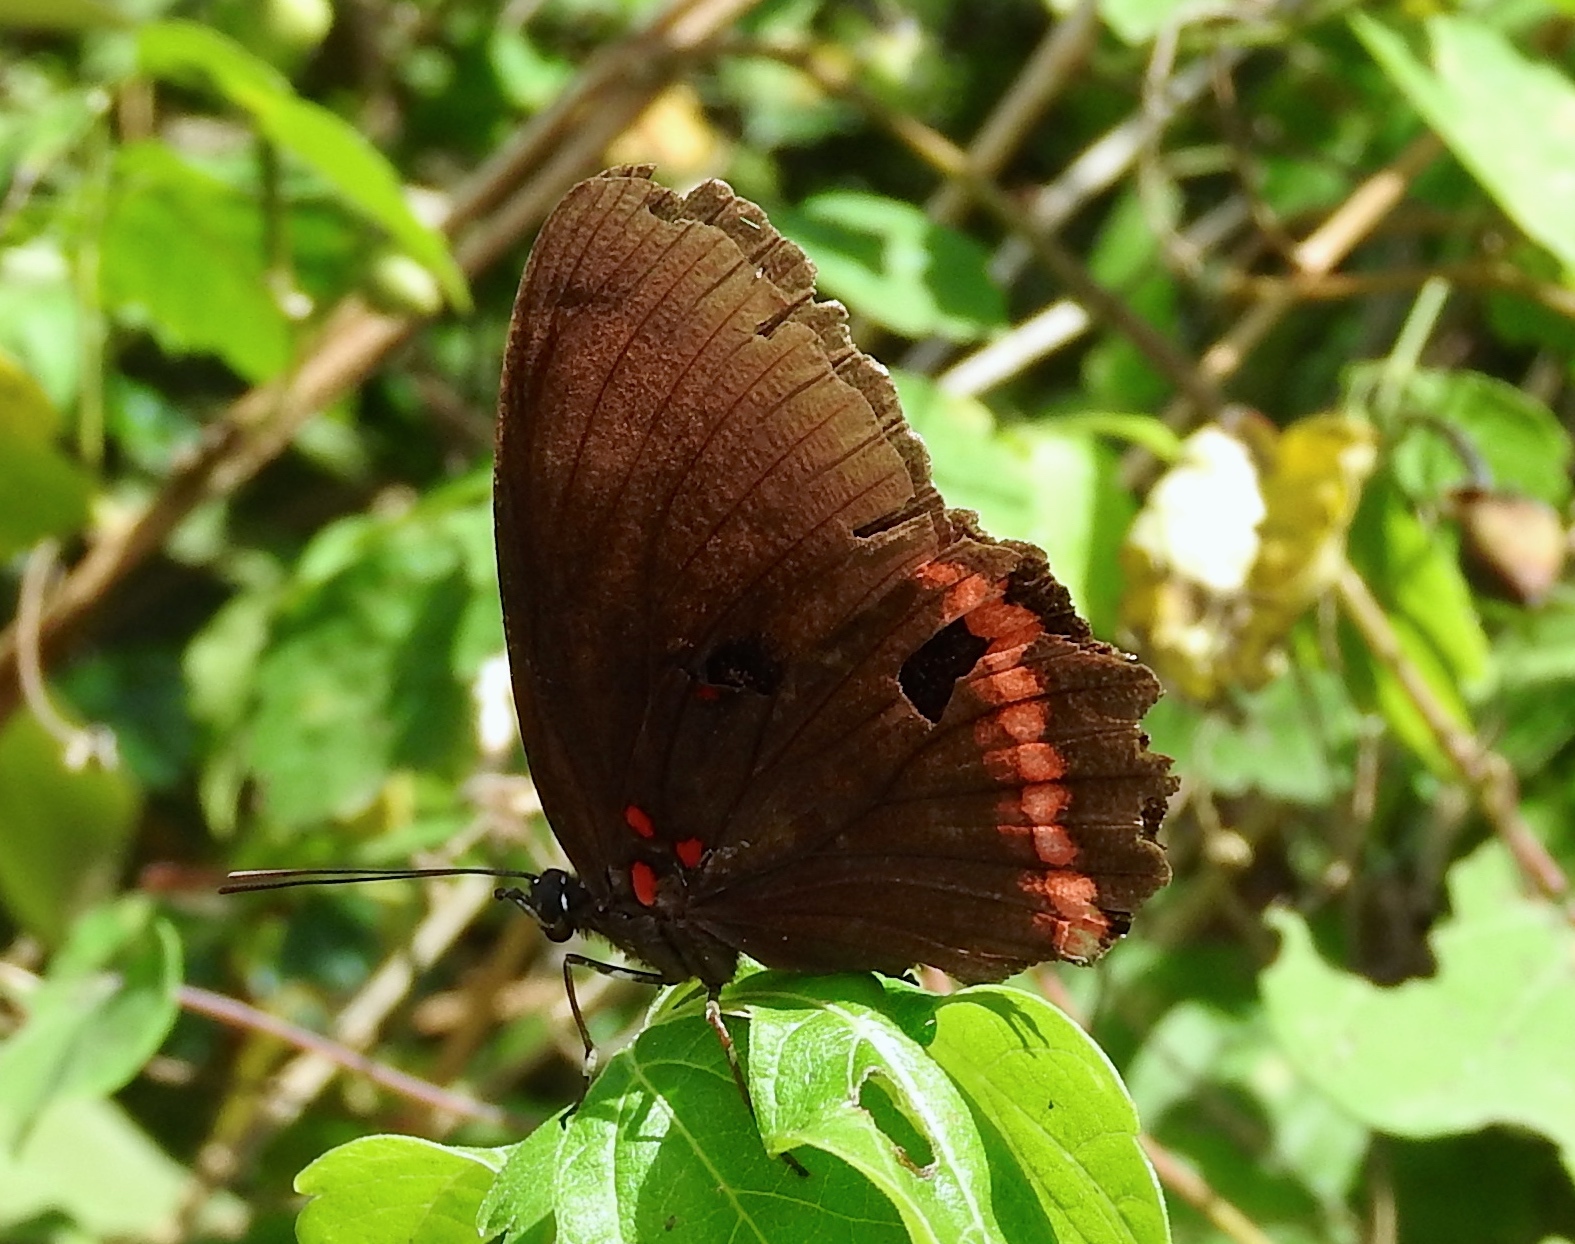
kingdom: Animalia
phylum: Arthropoda
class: Insecta
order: Lepidoptera
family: Nymphalidae
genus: Biblis
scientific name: Biblis aganisa
